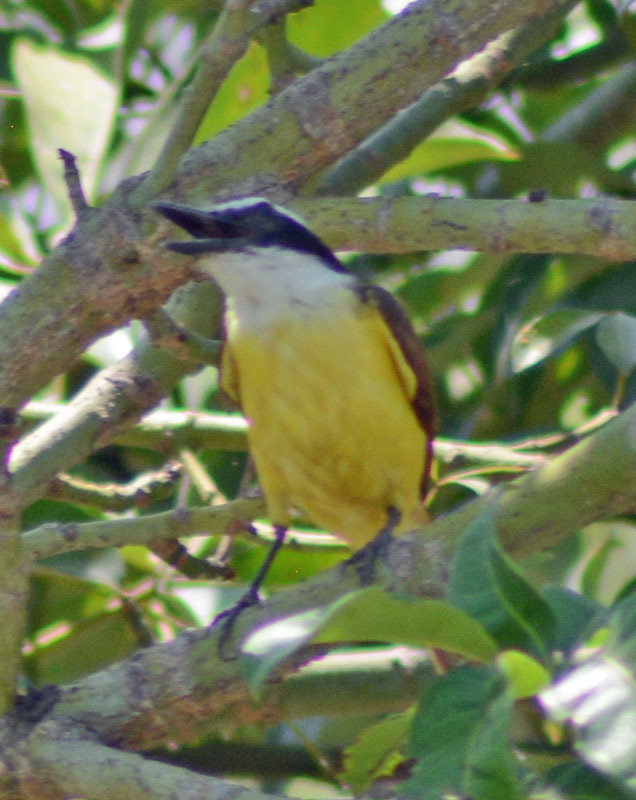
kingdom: Animalia
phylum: Chordata
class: Aves
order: Passeriformes
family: Tyrannidae
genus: Pitangus
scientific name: Pitangus sulphuratus
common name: Great kiskadee
